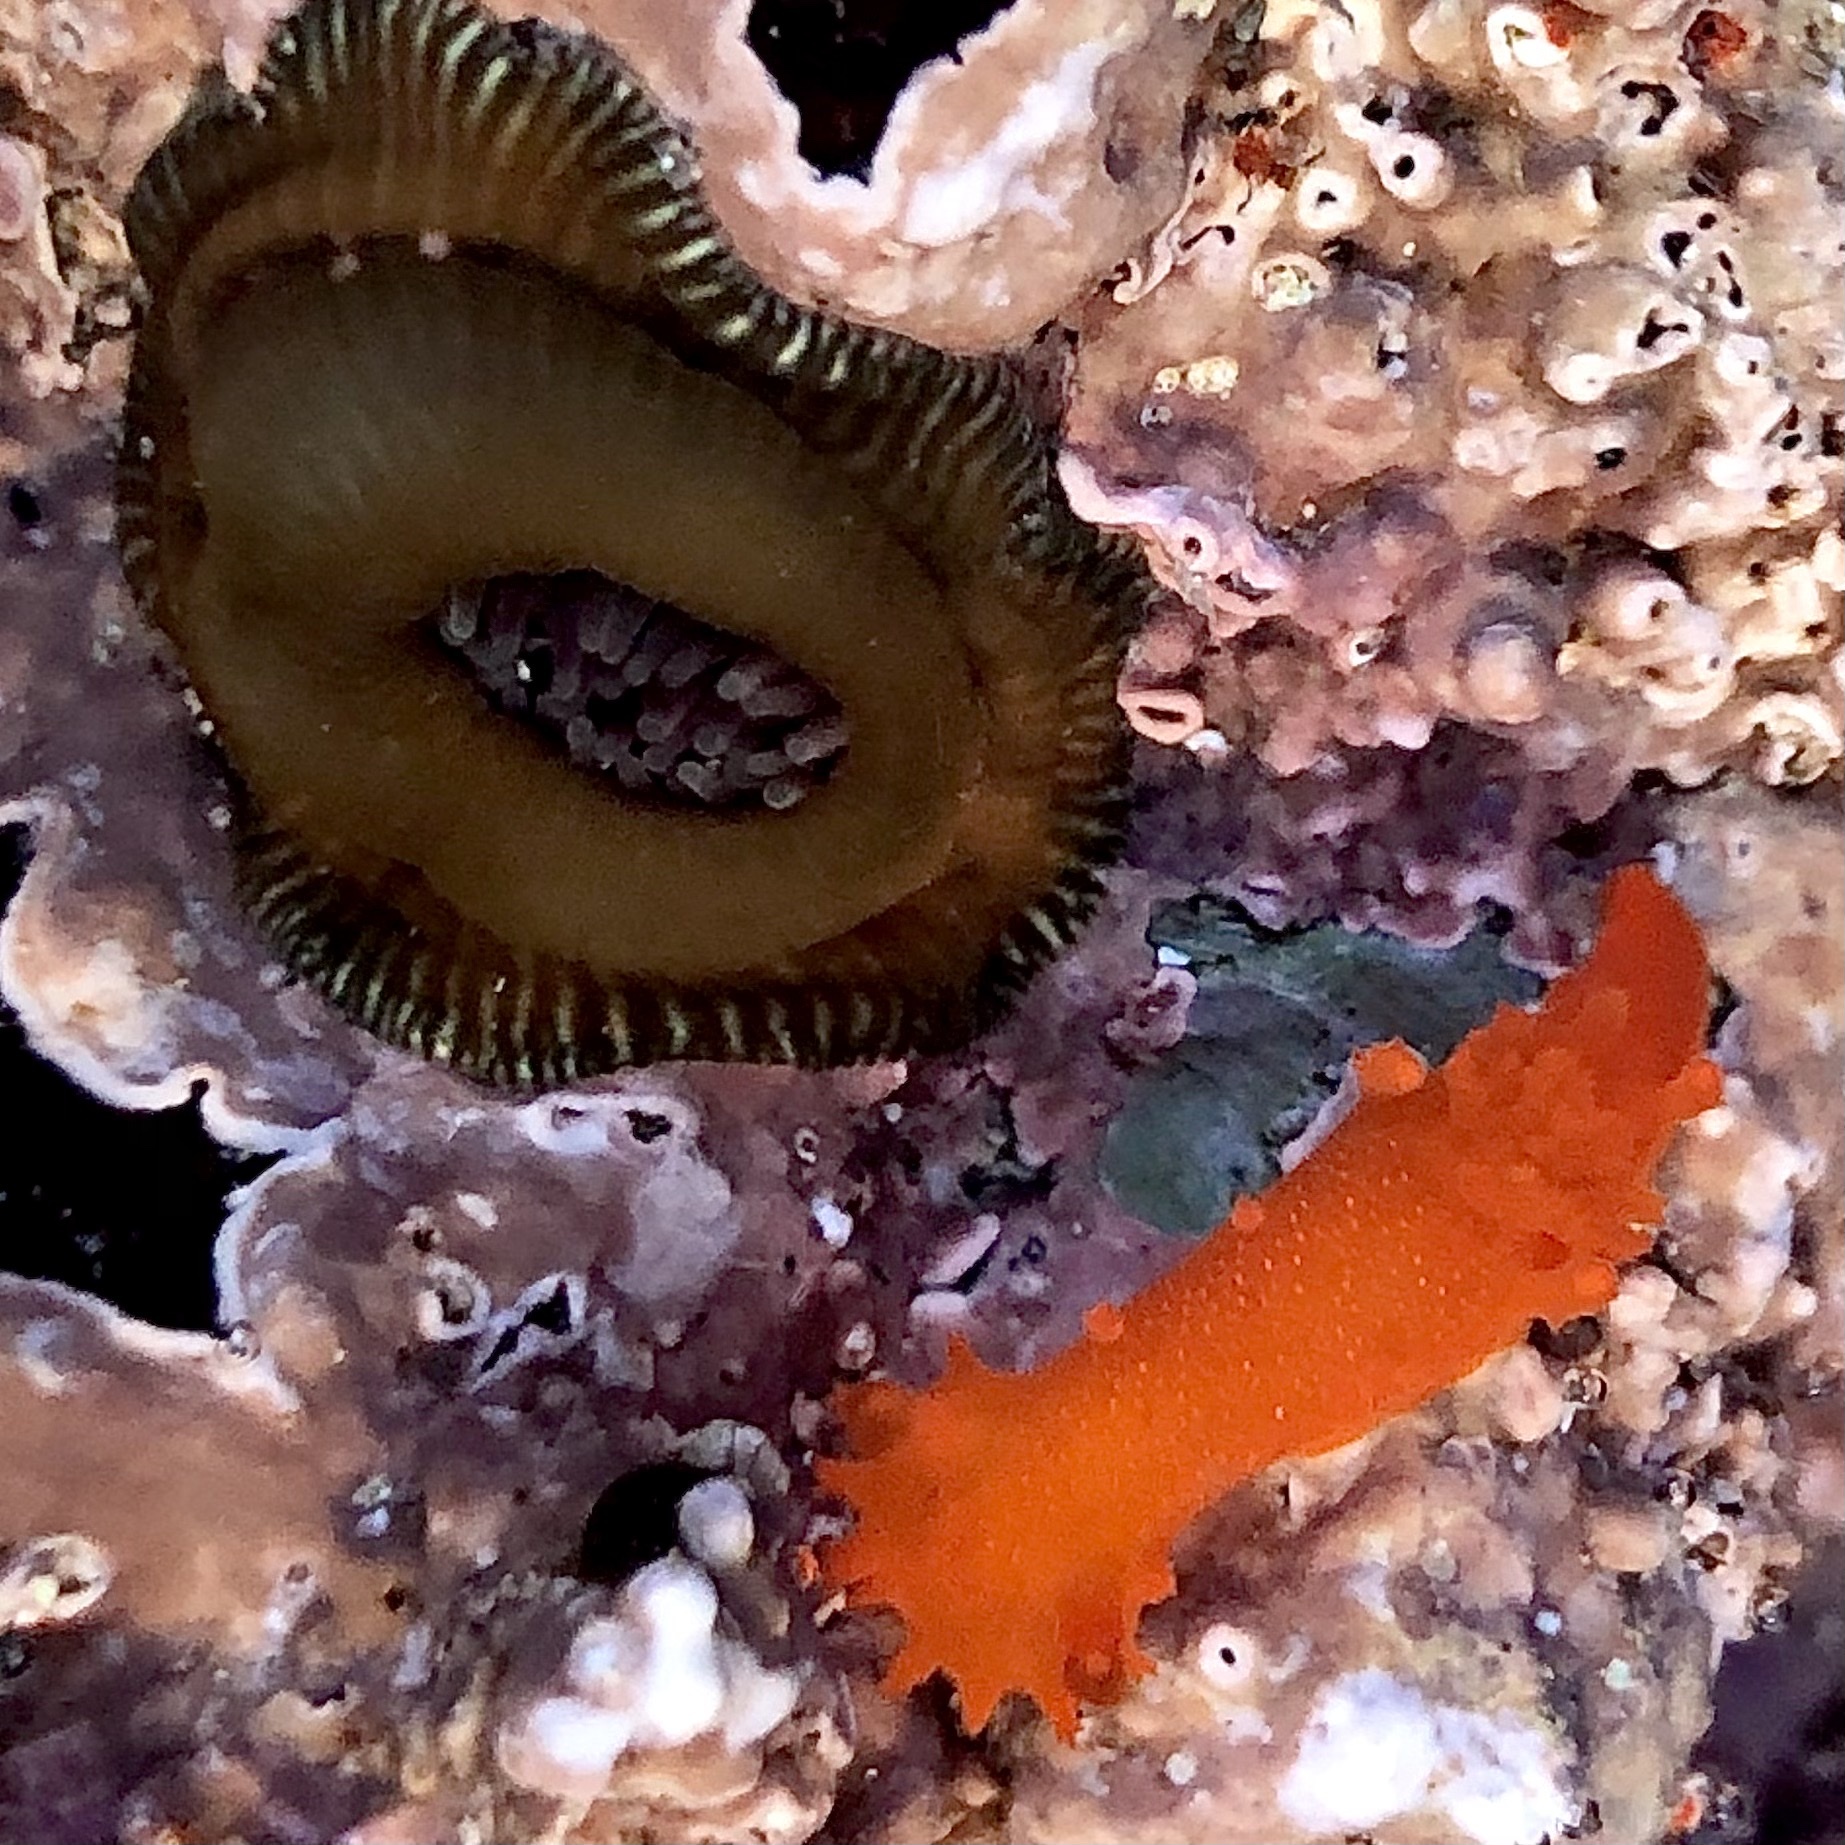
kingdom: Animalia
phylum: Mollusca
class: Gastropoda
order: Nudibranchia
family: Polyceridae
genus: Triopha
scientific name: Triopha maculata
